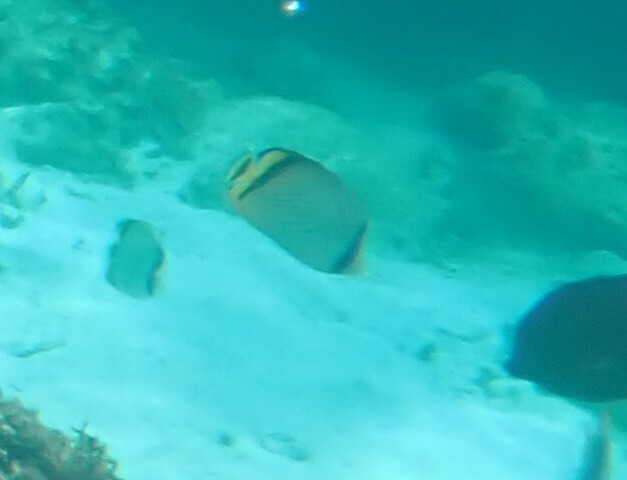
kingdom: Animalia
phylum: Chordata
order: Perciformes
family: Chaetodontidae
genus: Chaetodon
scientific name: Chaetodon vagabundus
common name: Vagabond butterflyfish
